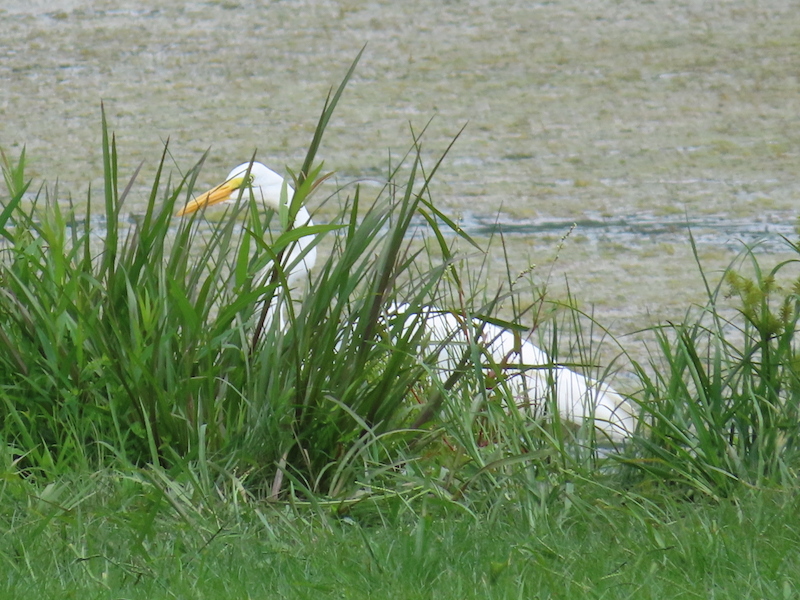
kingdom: Animalia
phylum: Chordata
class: Aves
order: Pelecaniformes
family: Ardeidae
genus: Ardea
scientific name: Ardea alba
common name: Great egret
